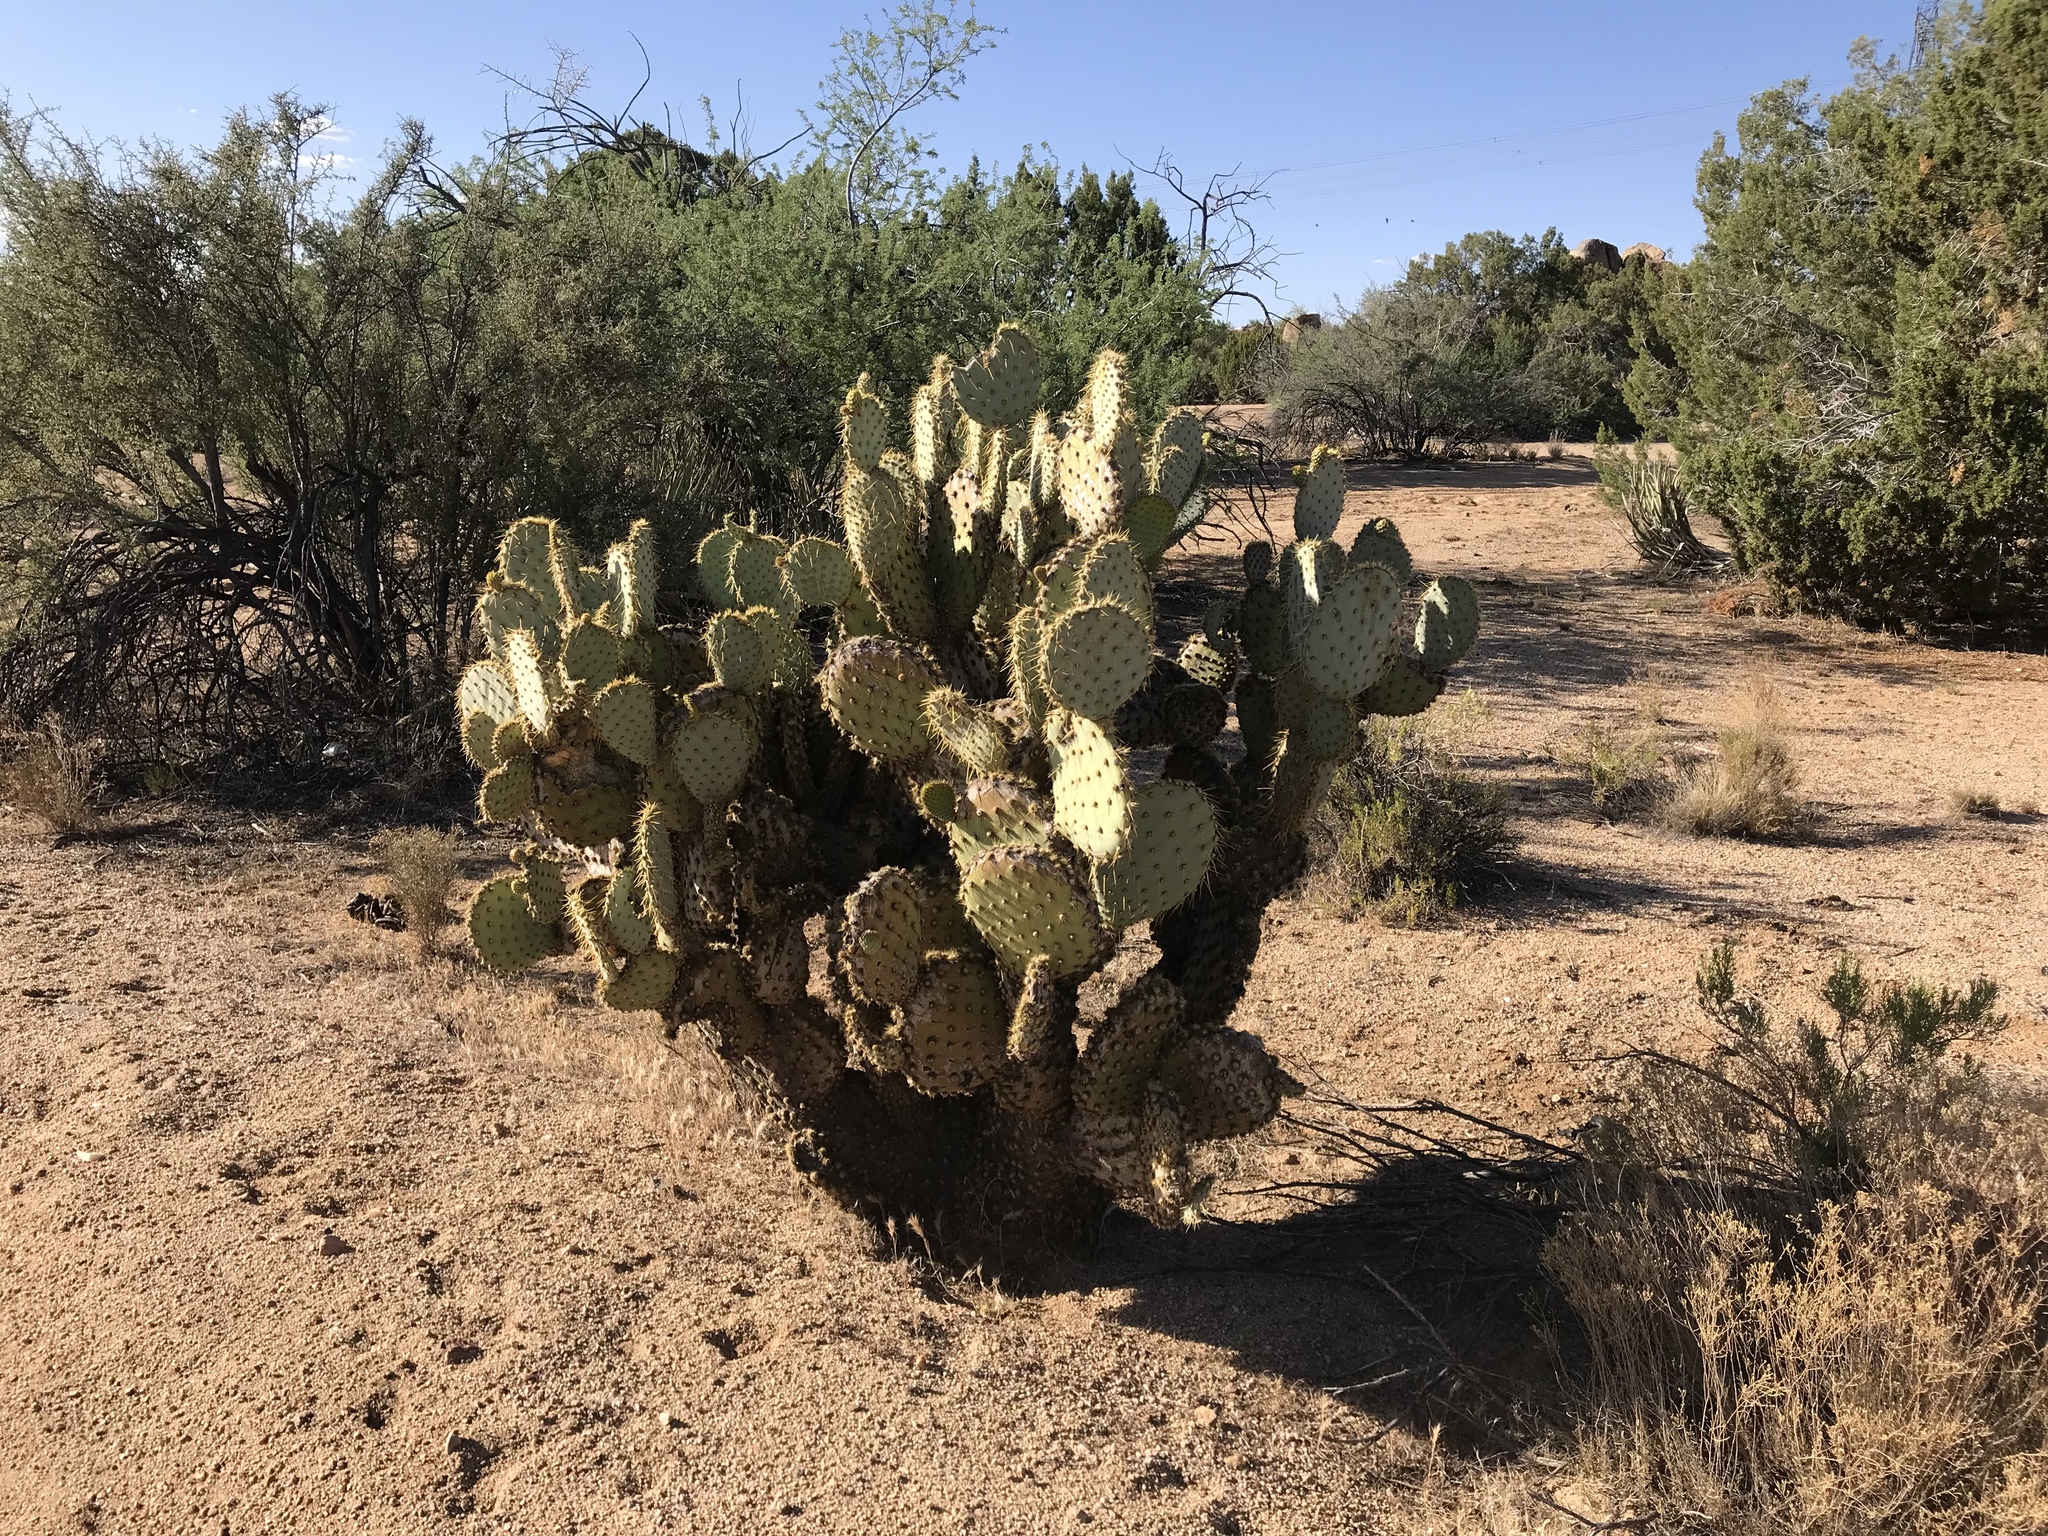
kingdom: Plantae
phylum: Tracheophyta
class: Magnoliopsida
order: Caryophyllales
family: Cactaceae
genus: Opuntia
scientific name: Opuntia chlorotica
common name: Dollar-joint prickly-pear
